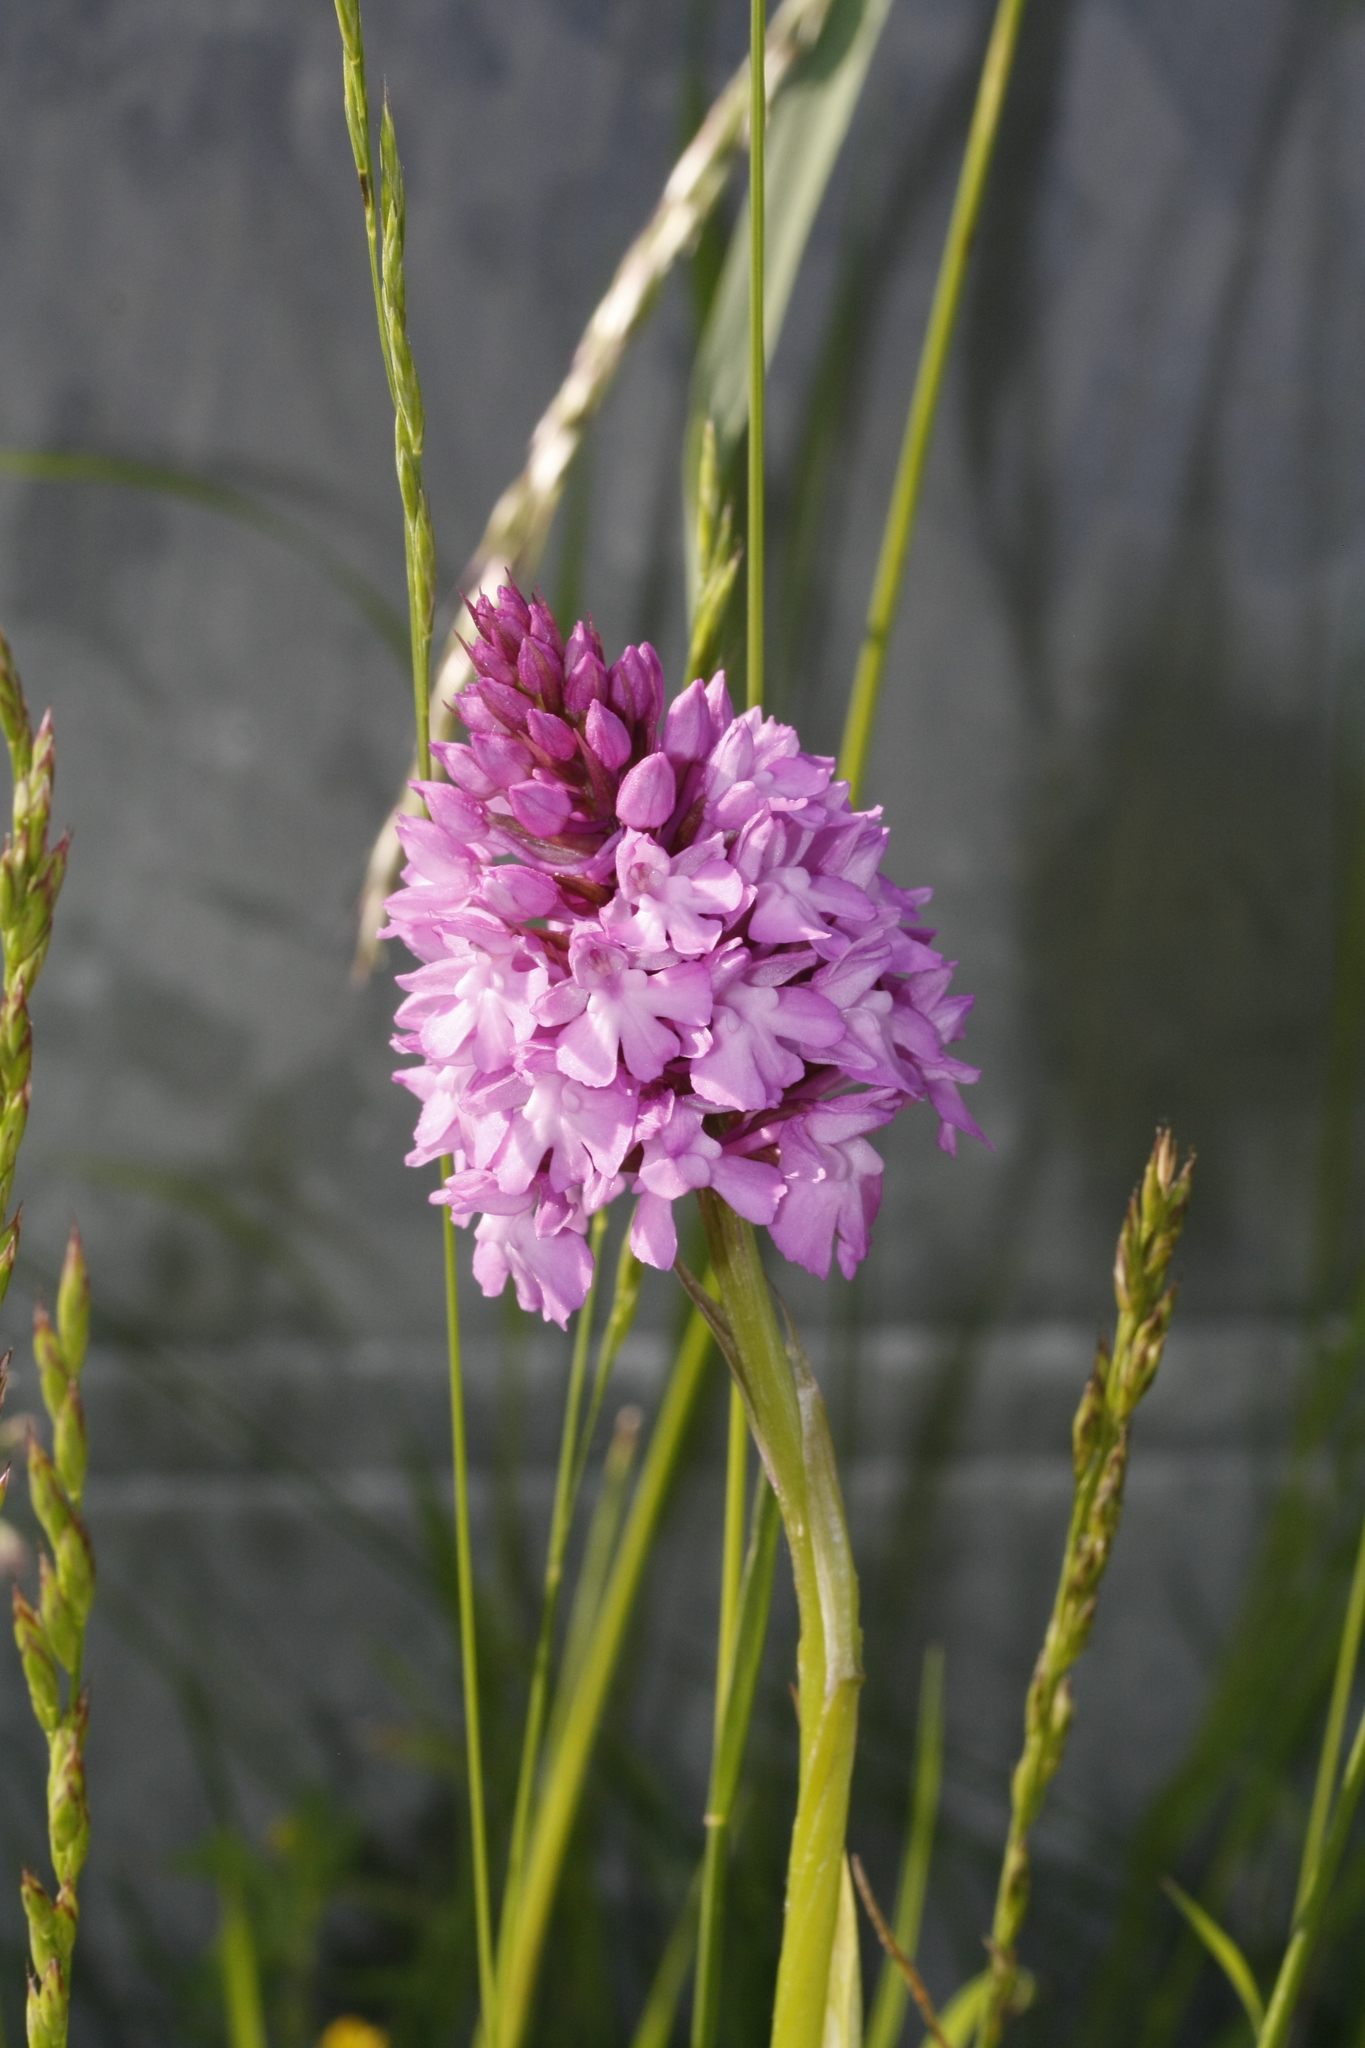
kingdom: Plantae
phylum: Tracheophyta
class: Liliopsida
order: Asparagales
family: Orchidaceae
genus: Anacamptis
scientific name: Anacamptis pyramidalis
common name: Pyramidal orchid
